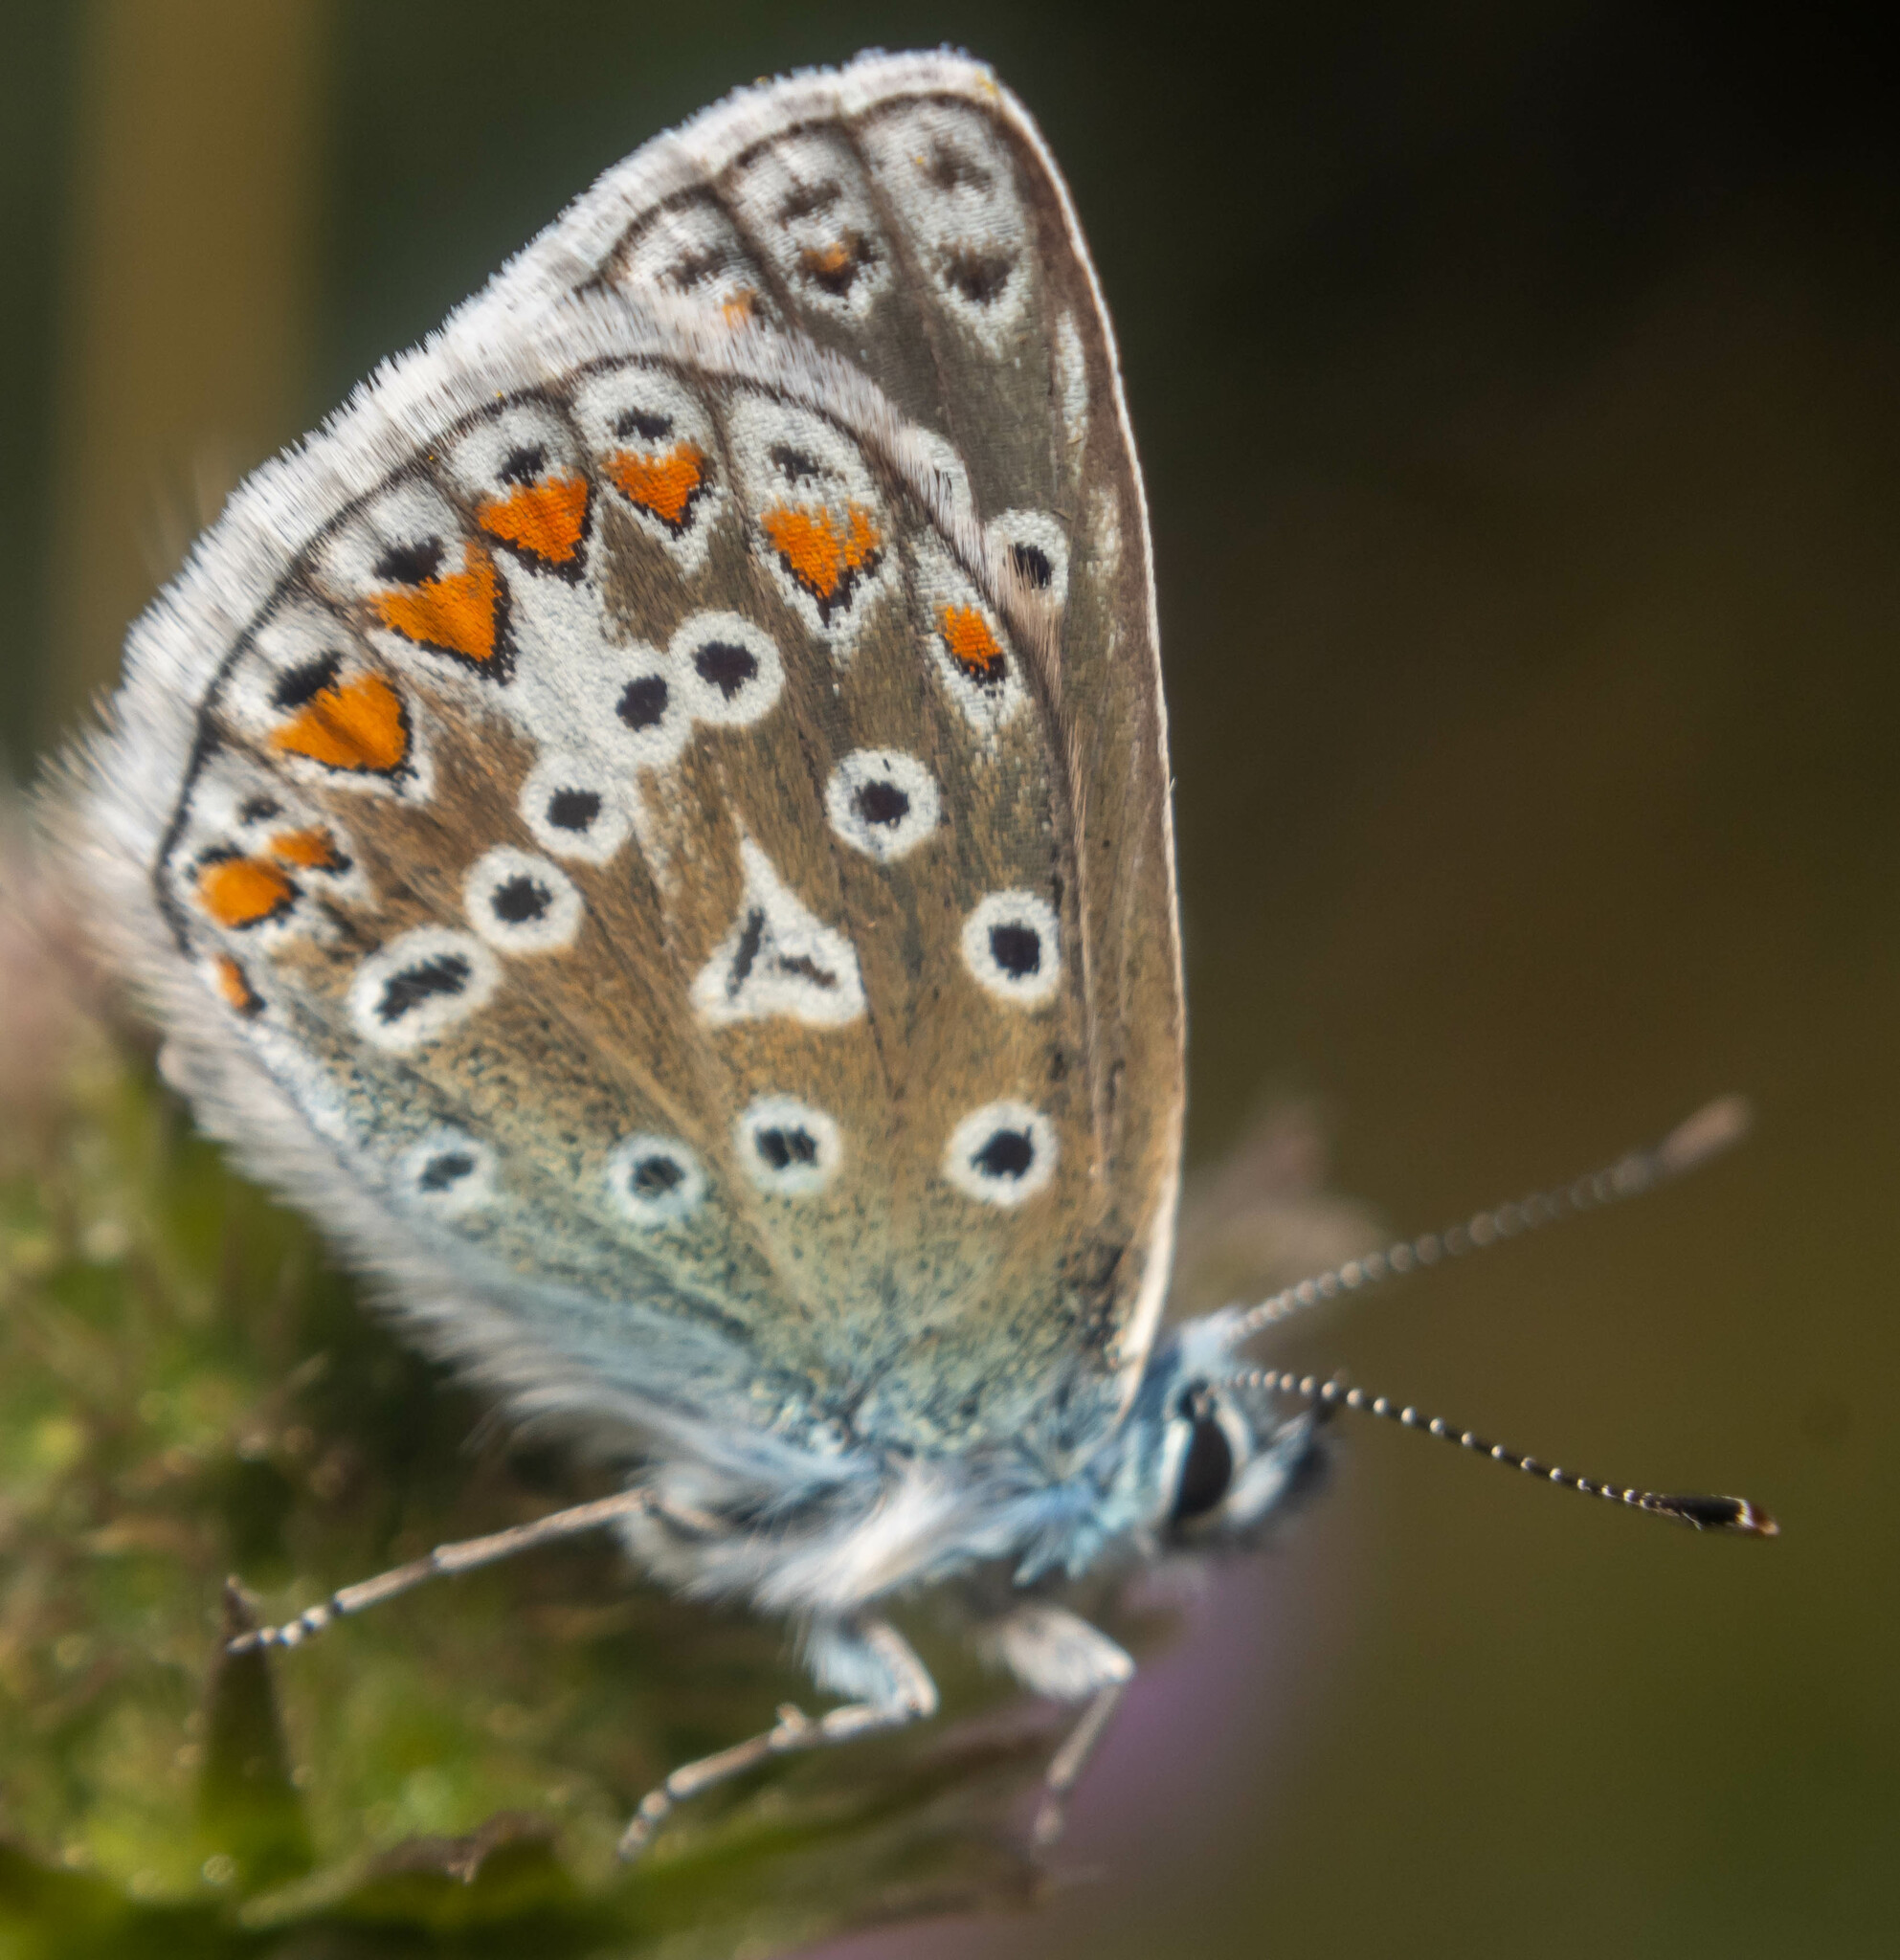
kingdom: Animalia
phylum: Arthropoda
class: Insecta
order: Lepidoptera
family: Lycaenidae
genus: Polyommatus
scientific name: Polyommatus icarus
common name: Common blue
